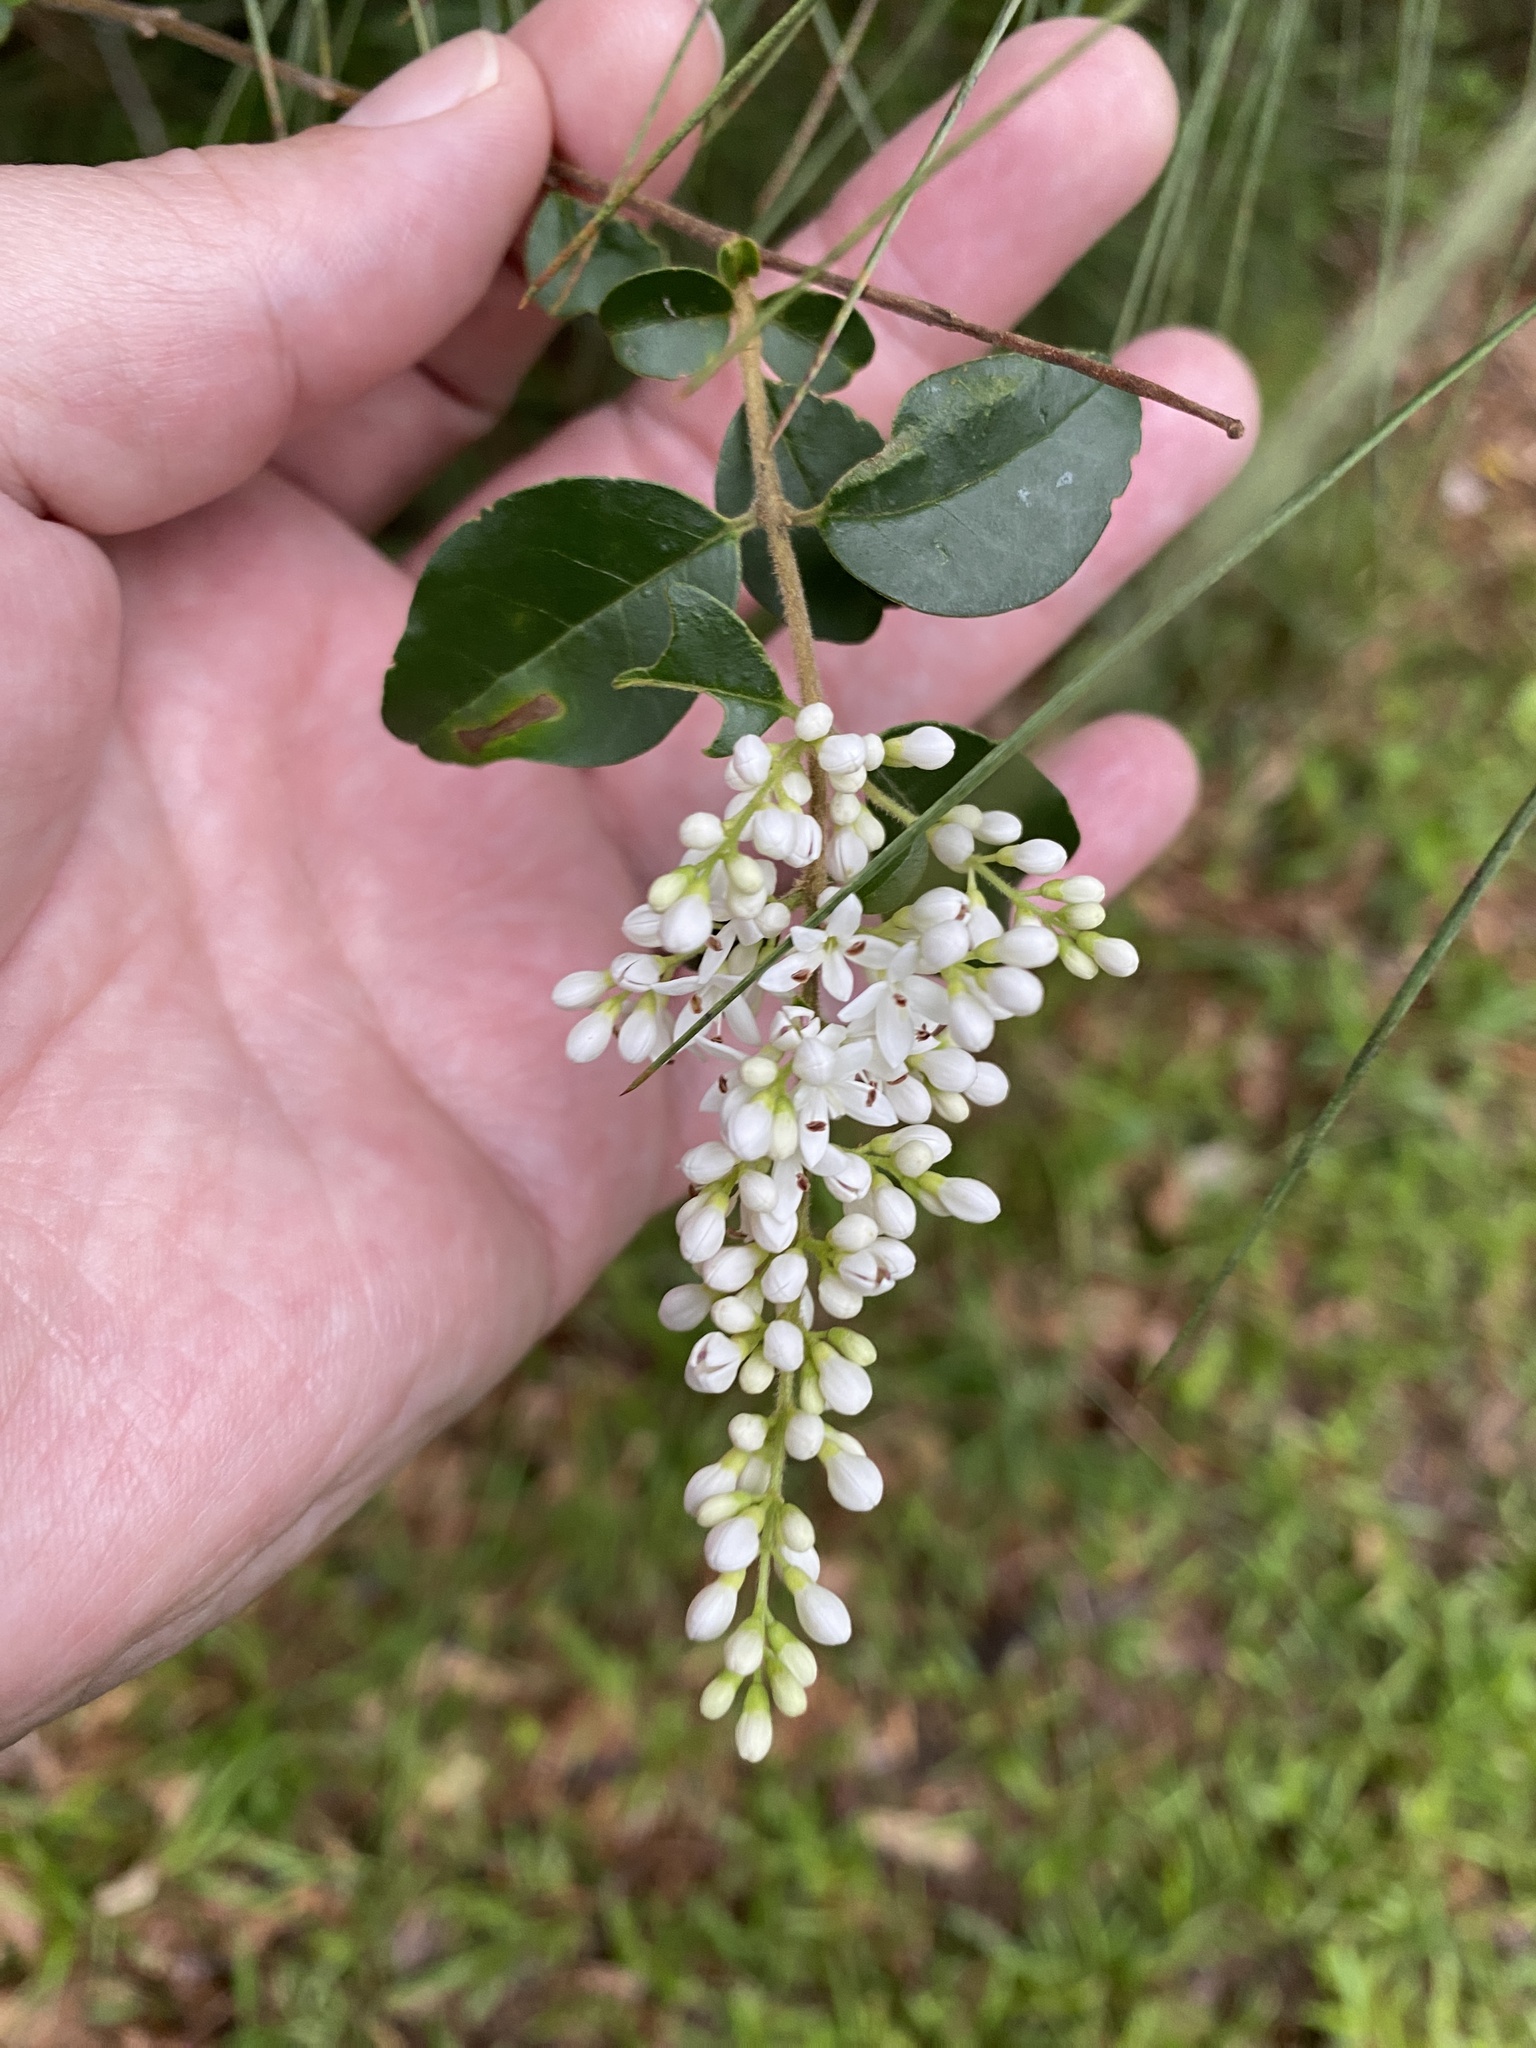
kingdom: Plantae
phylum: Tracheophyta
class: Magnoliopsida
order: Lamiales
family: Oleaceae
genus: Ligustrum
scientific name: Ligustrum sinense
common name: Chinese privet
